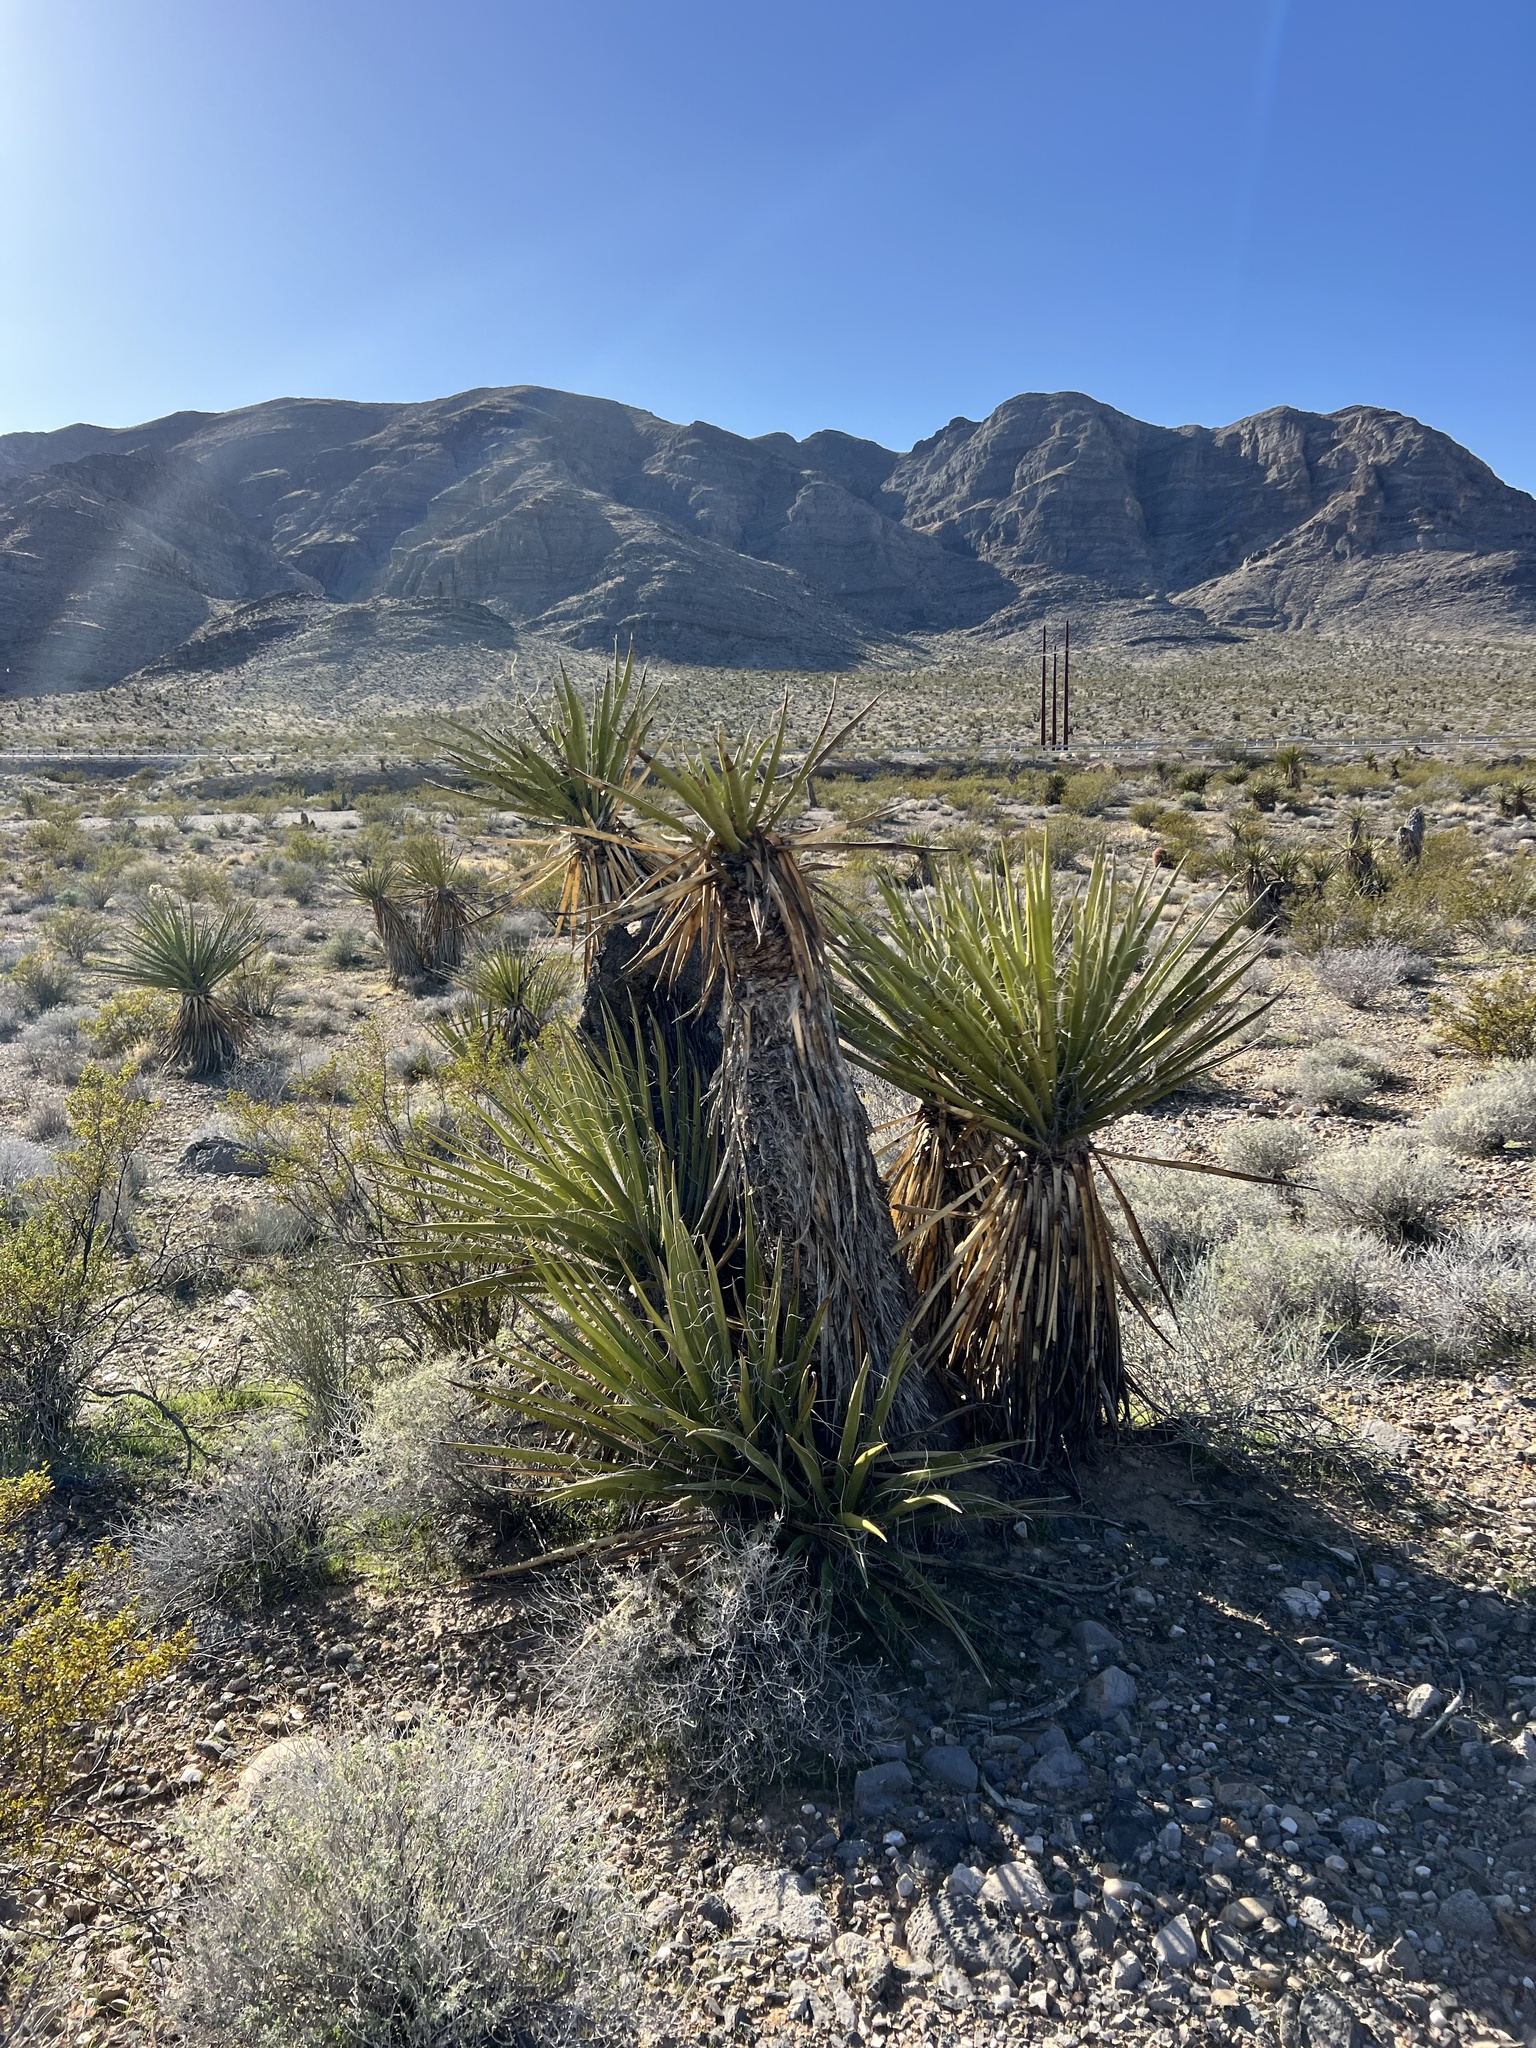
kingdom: Plantae
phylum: Tracheophyta
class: Liliopsida
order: Asparagales
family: Asparagaceae
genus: Yucca
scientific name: Yucca schidigera
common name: Mojave yucca
